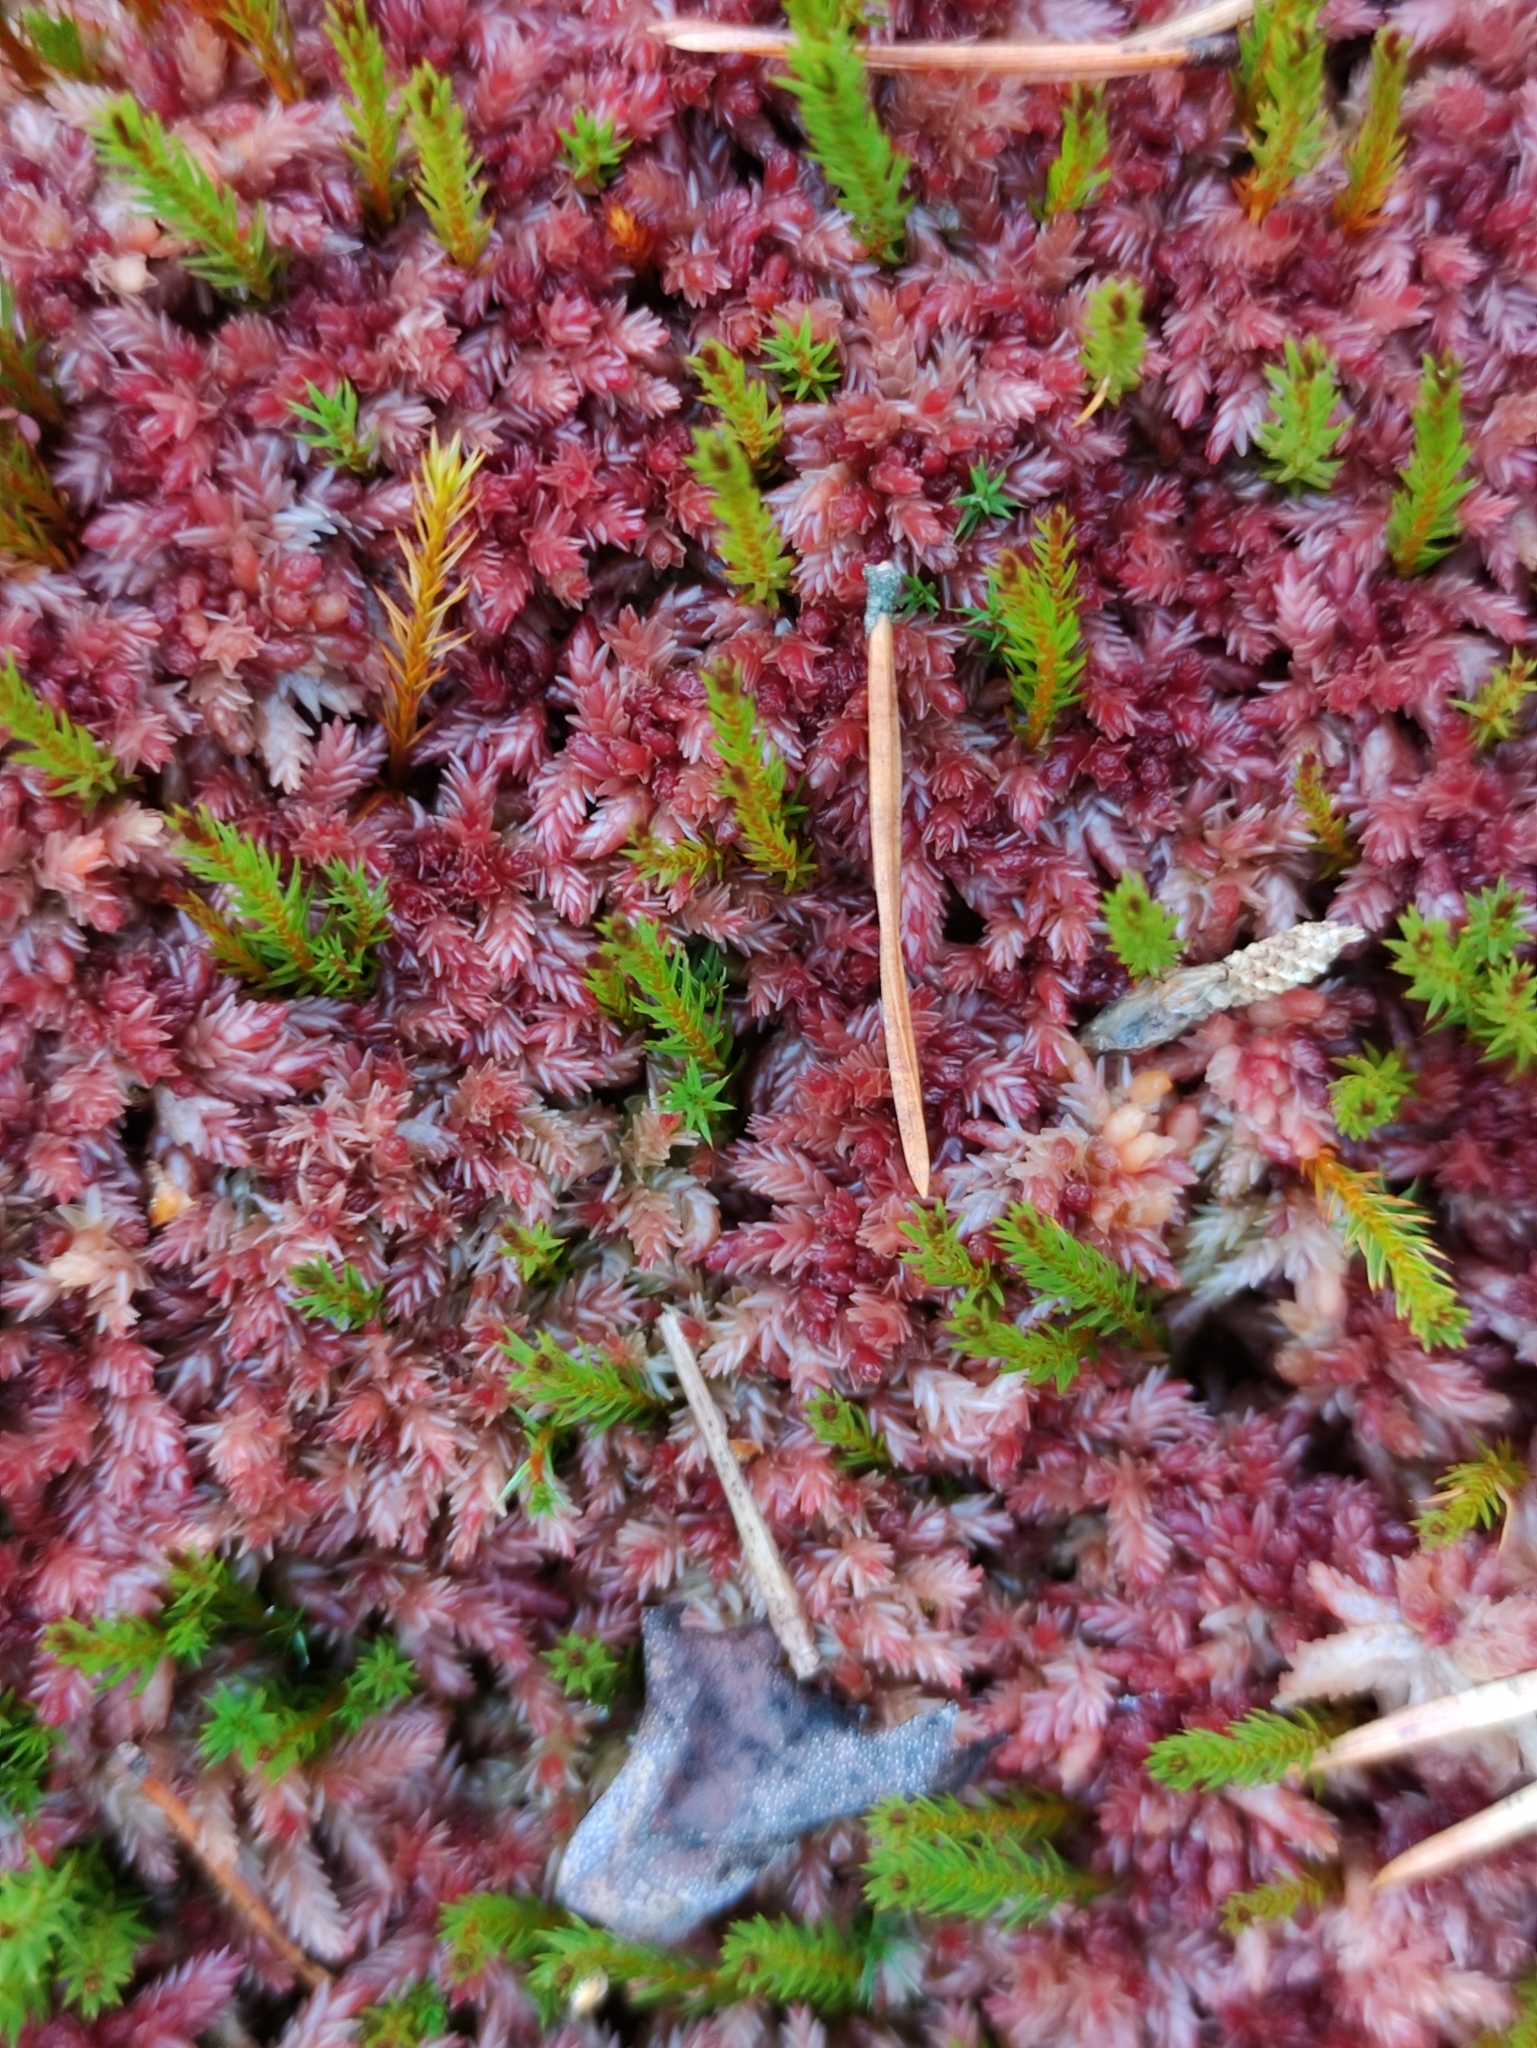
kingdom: Plantae
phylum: Bryophyta
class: Sphagnopsida
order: Sphagnales
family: Sphagnaceae
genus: Sphagnum
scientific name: Sphagnum divinum
